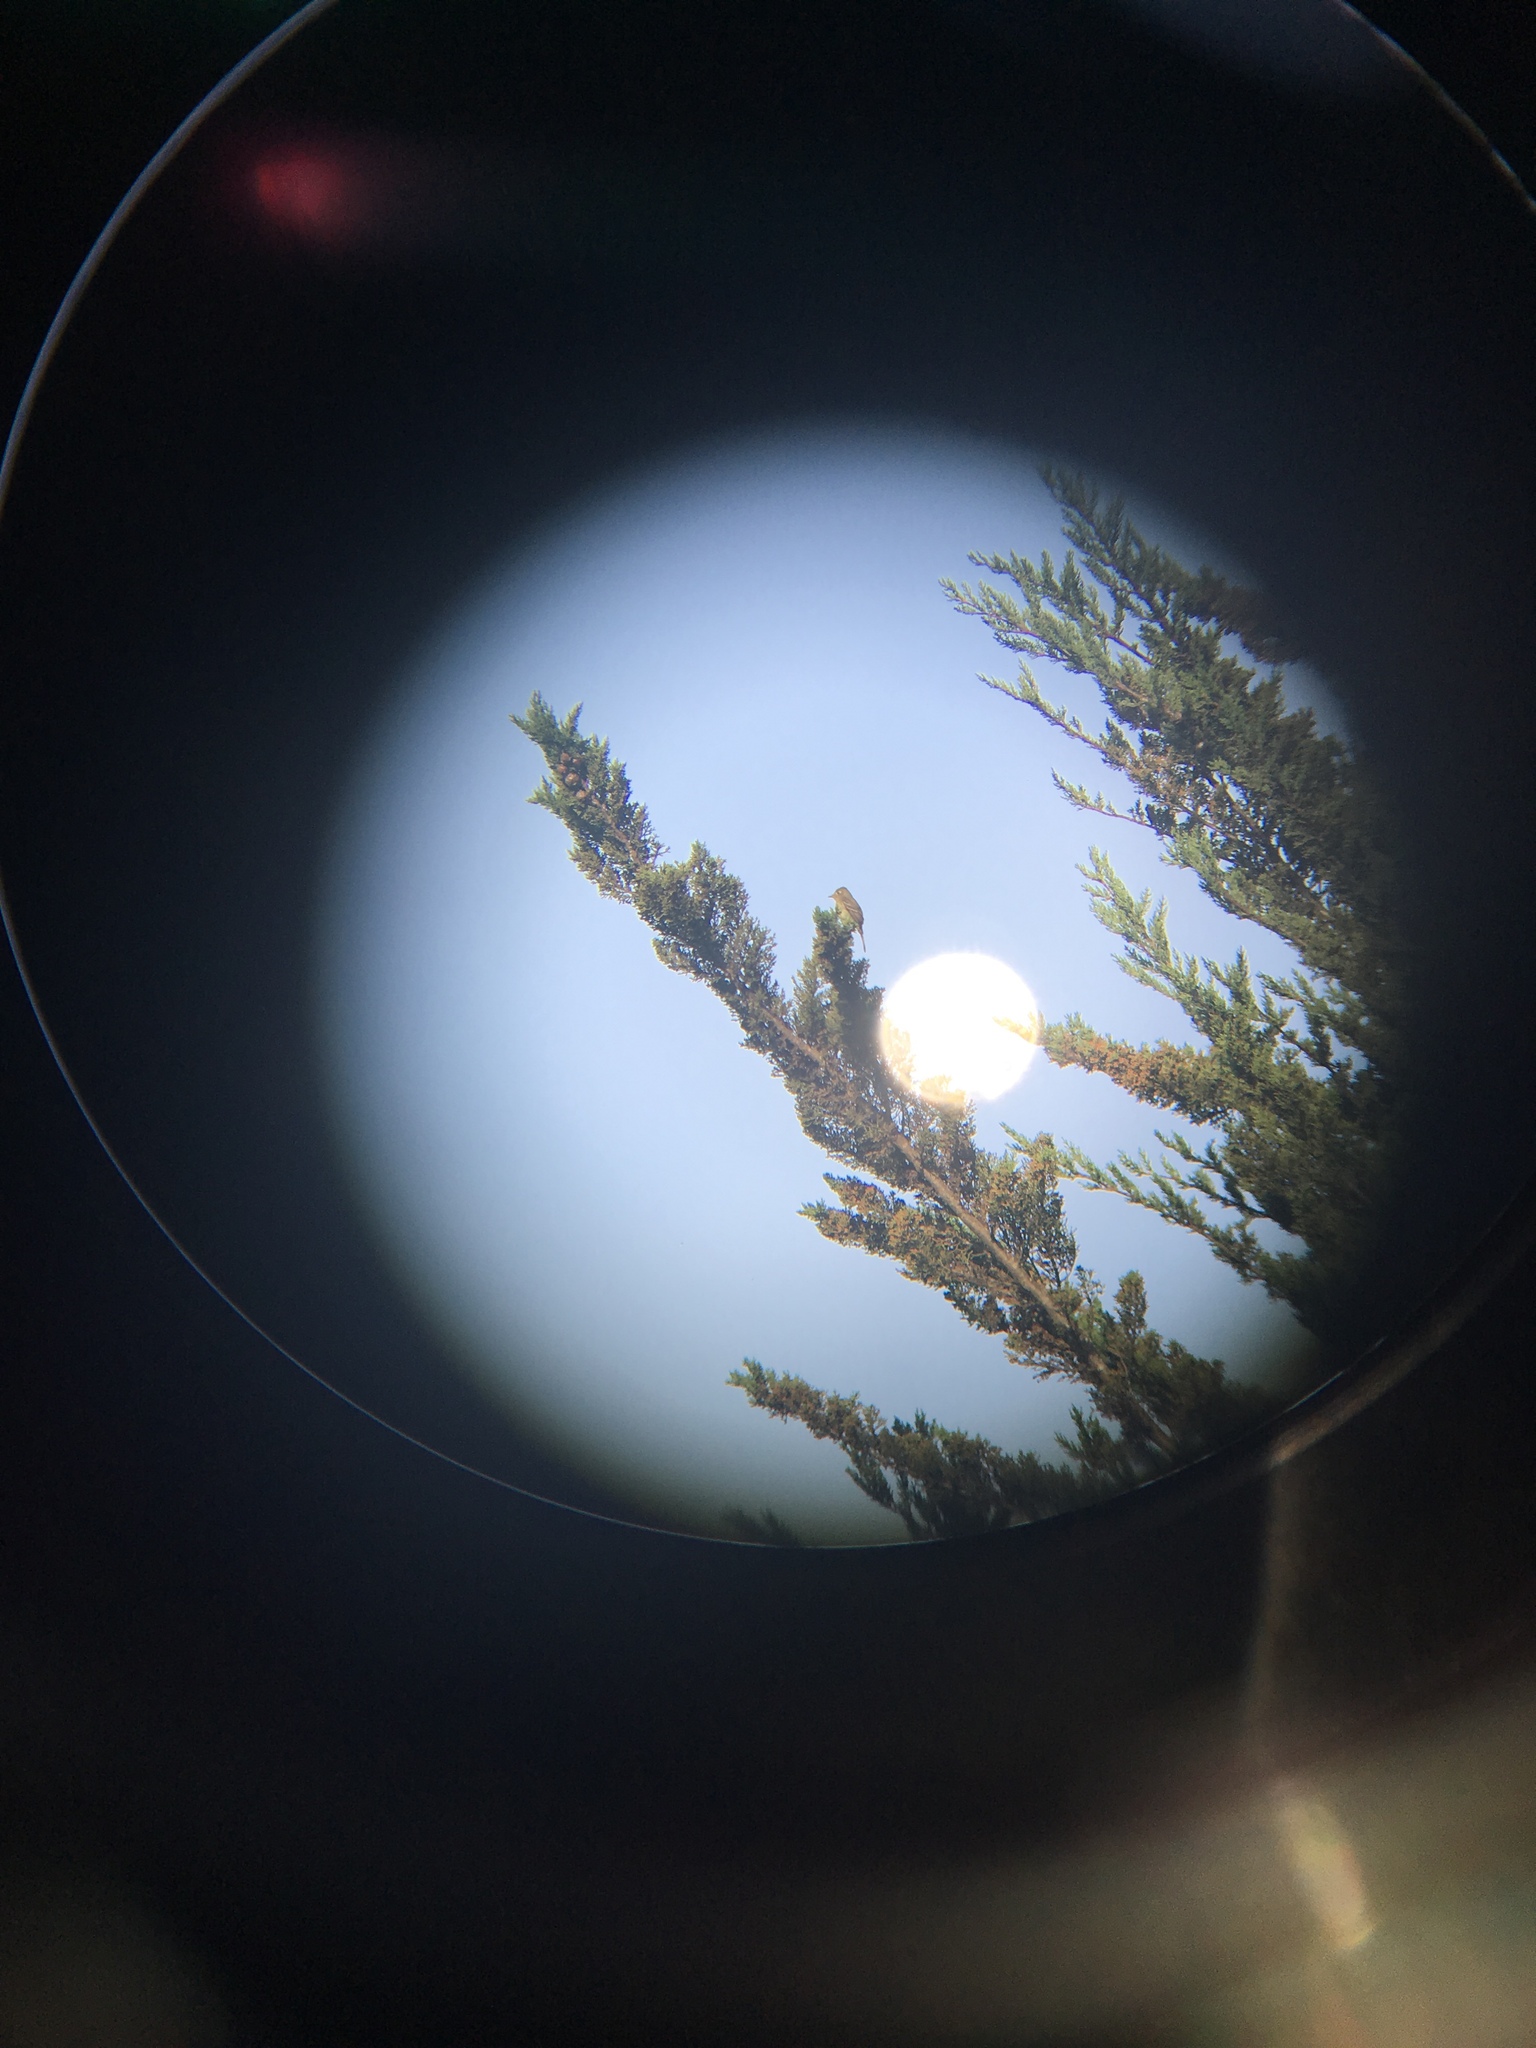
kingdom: Animalia
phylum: Chordata
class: Aves
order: Passeriformes
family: Tyrannidae
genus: Empidonax
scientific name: Empidonax difficilis
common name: Pacific-slope flycatcher
